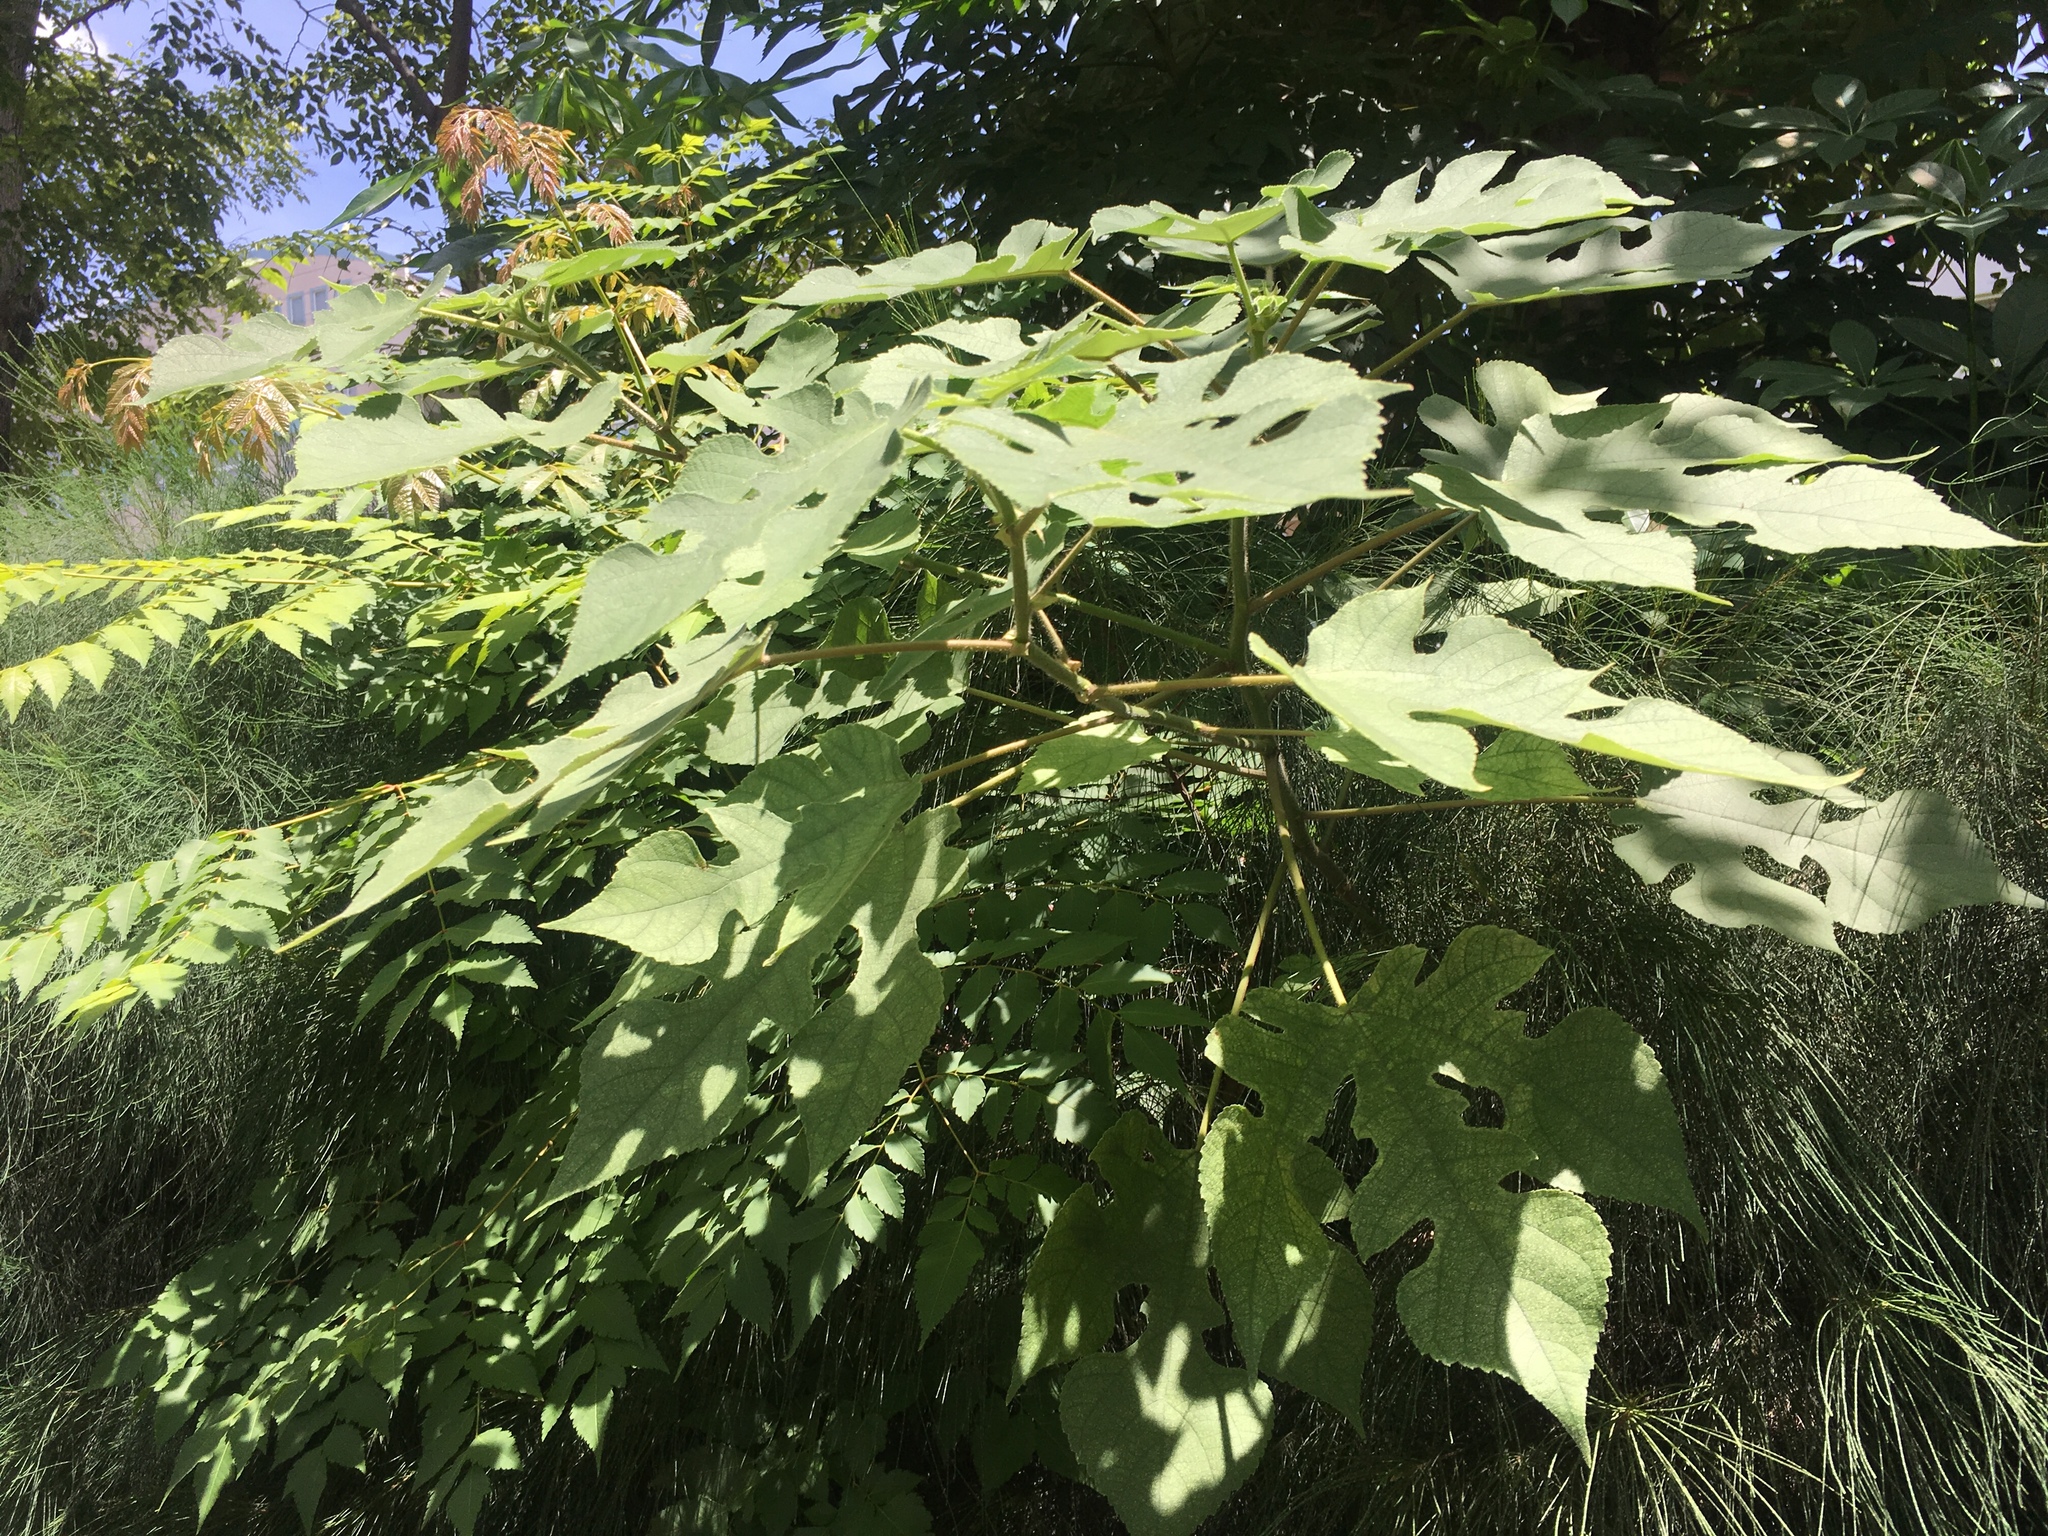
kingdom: Plantae
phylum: Tracheophyta
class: Magnoliopsida
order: Rosales
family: Moraceae
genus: Broussonetia
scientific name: Broussonetia papyrifera
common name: Paper mulberry
